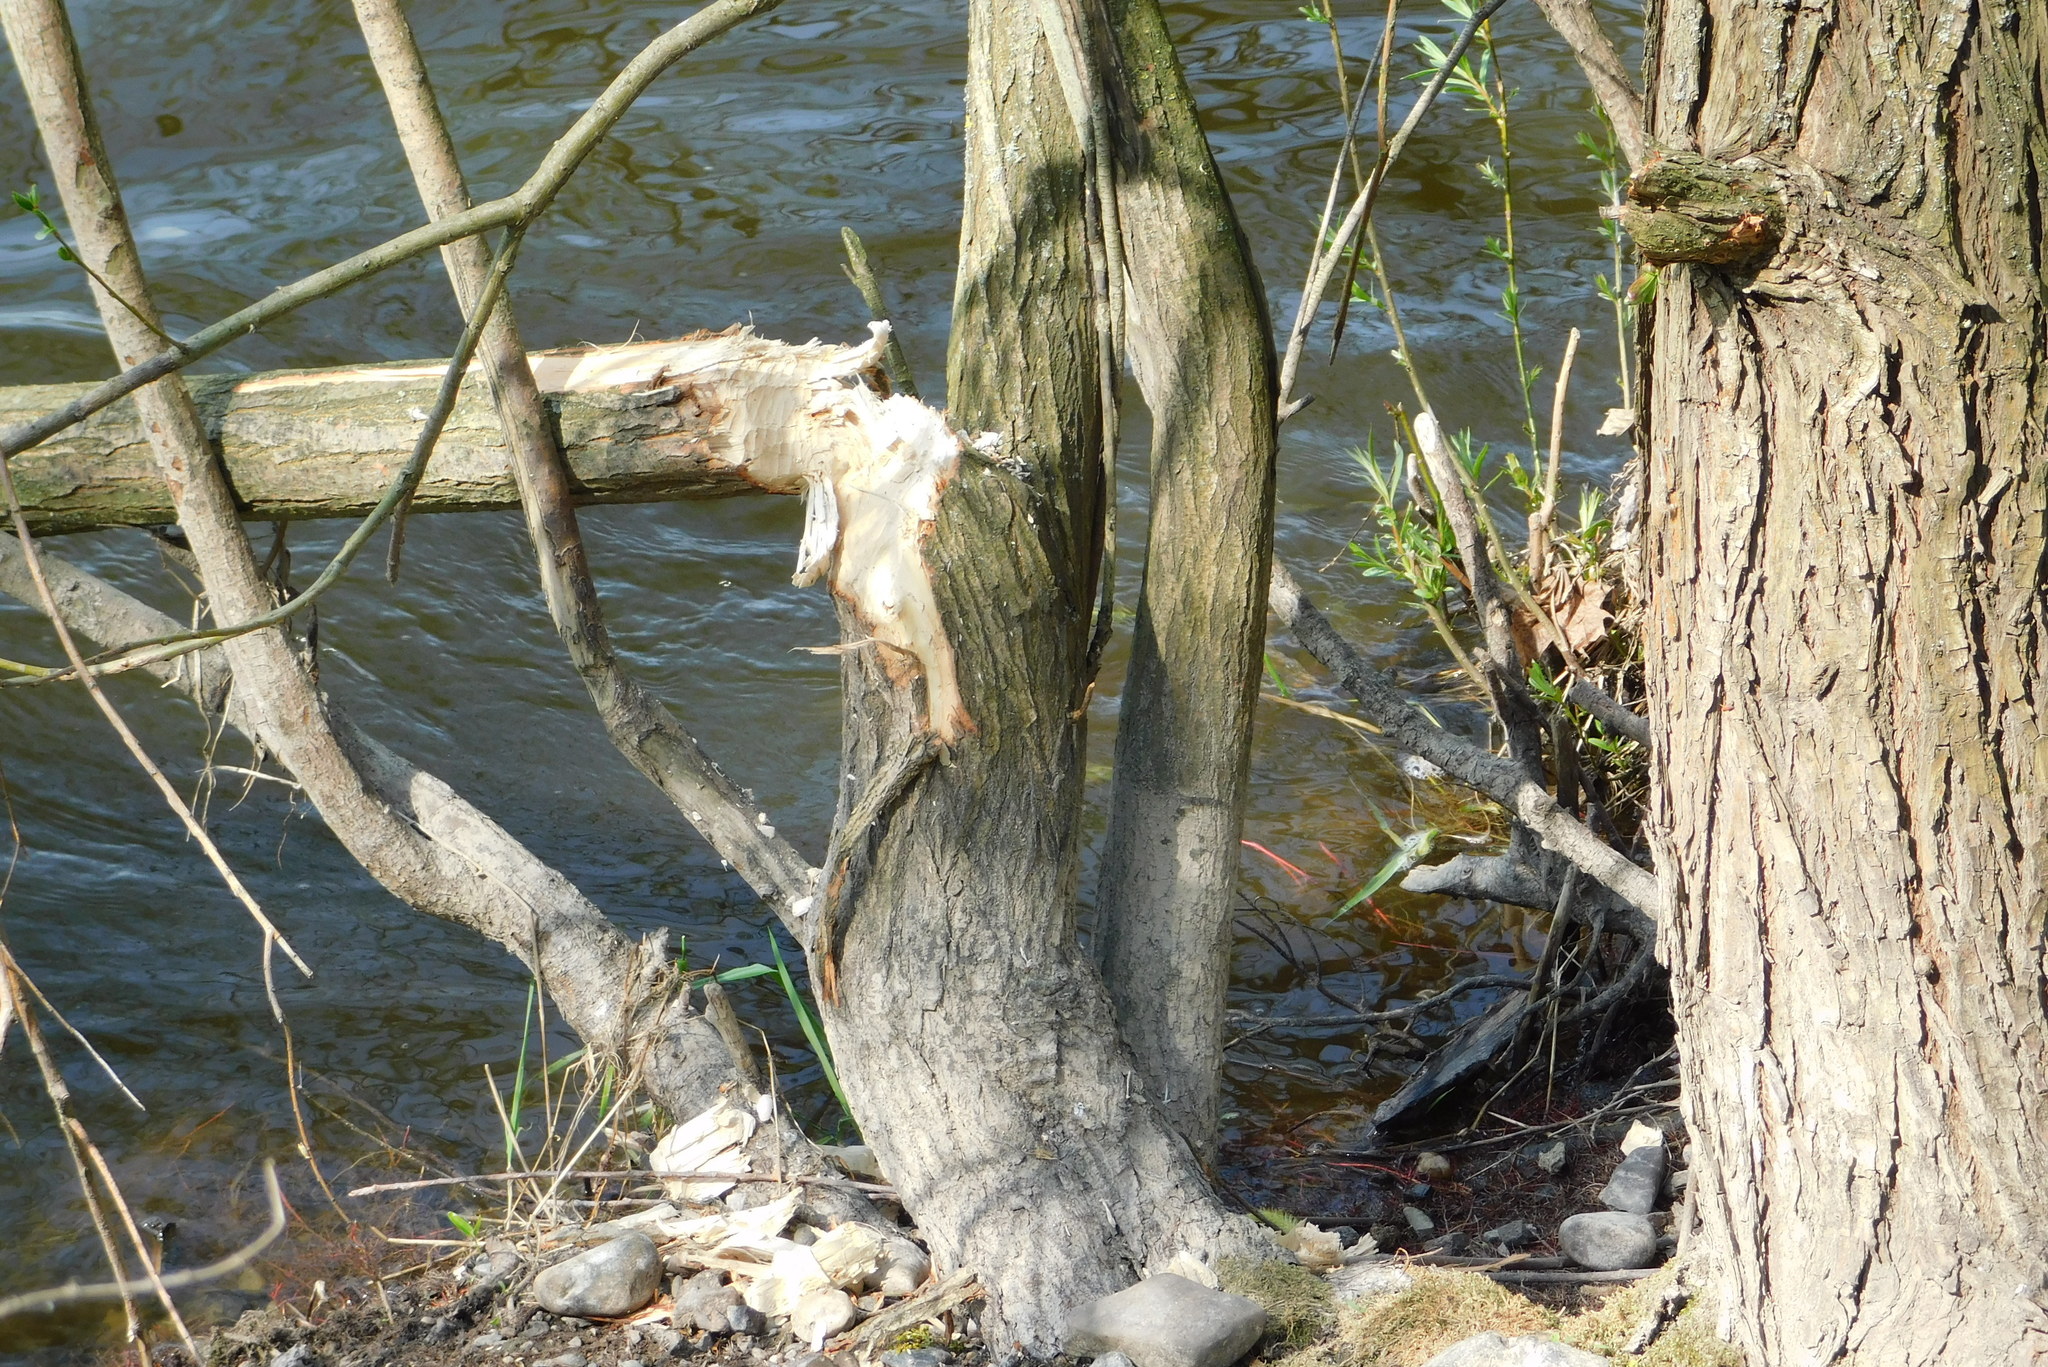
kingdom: Animalia
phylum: Chordata
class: Mammalia
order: Rodentia
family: Castoridae
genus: Castor
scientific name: Castor fiber
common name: Eurasian beaver
